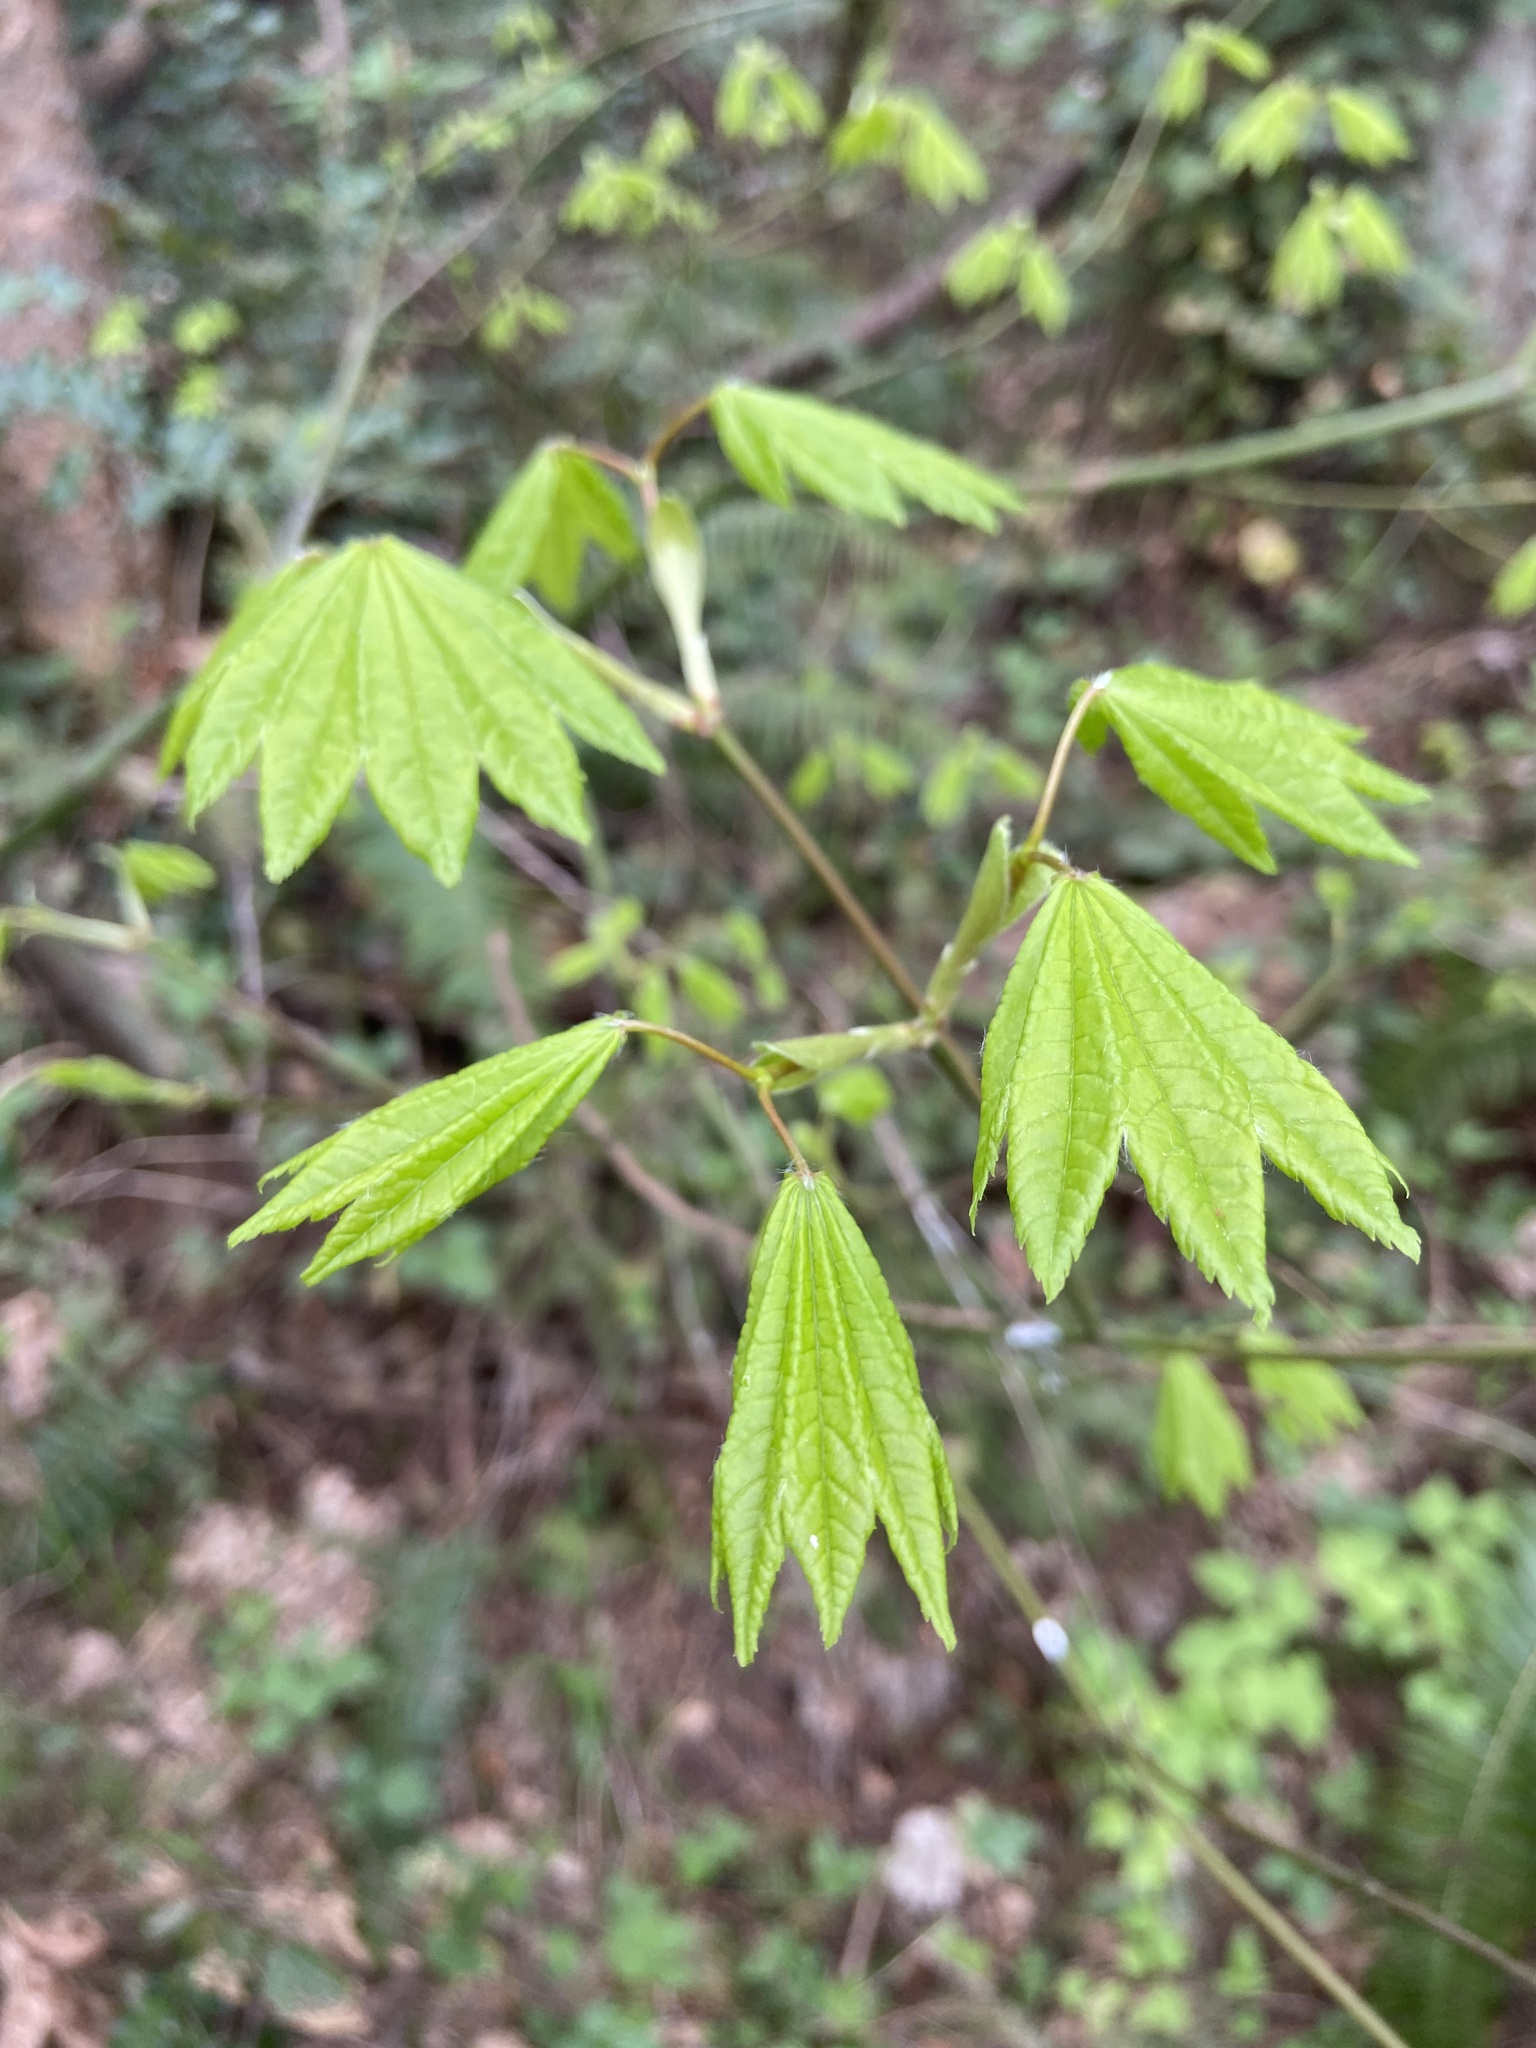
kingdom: Plantae
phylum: Tracheophyta
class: Magnoliopsida
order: Sapindales
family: Sapindaceae
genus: Acer
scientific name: Acer circinatum
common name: Vine maple
